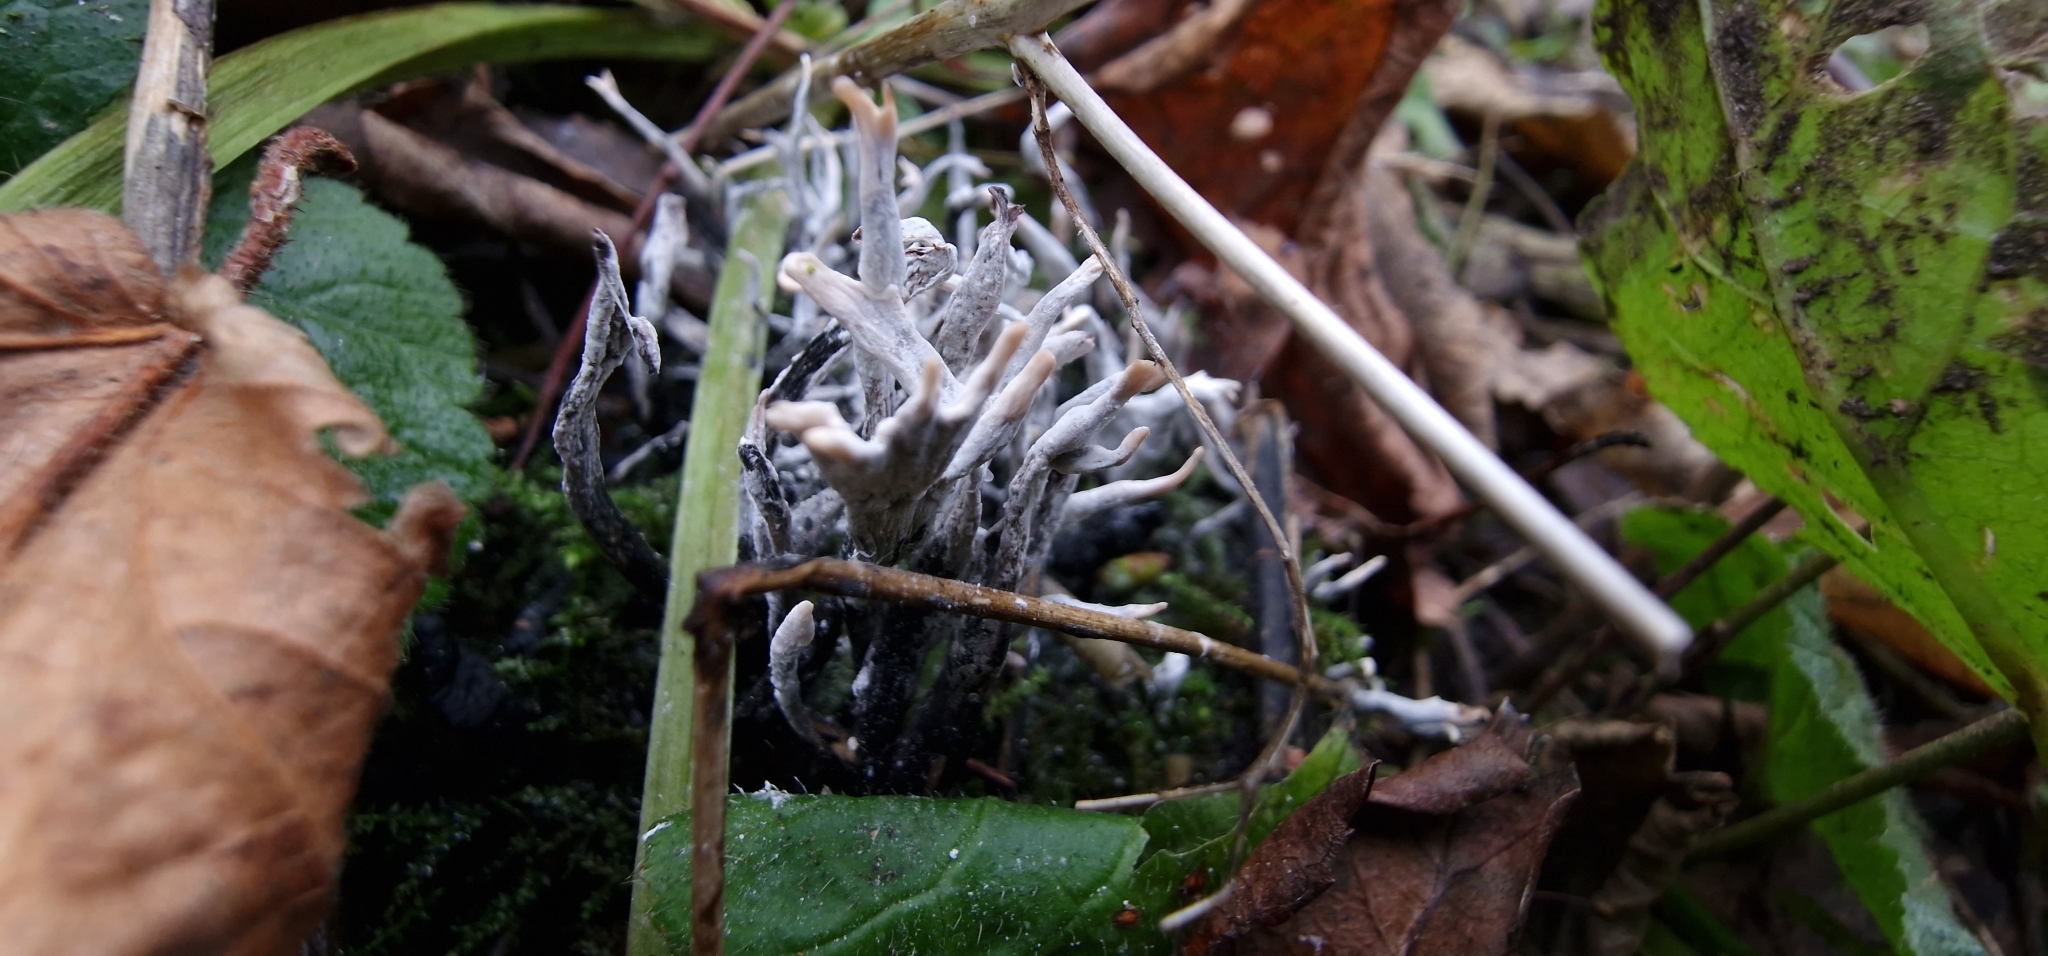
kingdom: Fungi
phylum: Ascomycota
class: Sordariomycetes
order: Xylariales
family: Xylariaceae
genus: Xylaria
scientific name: Xylaria hypoxylon
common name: Candle-snuff fungus
